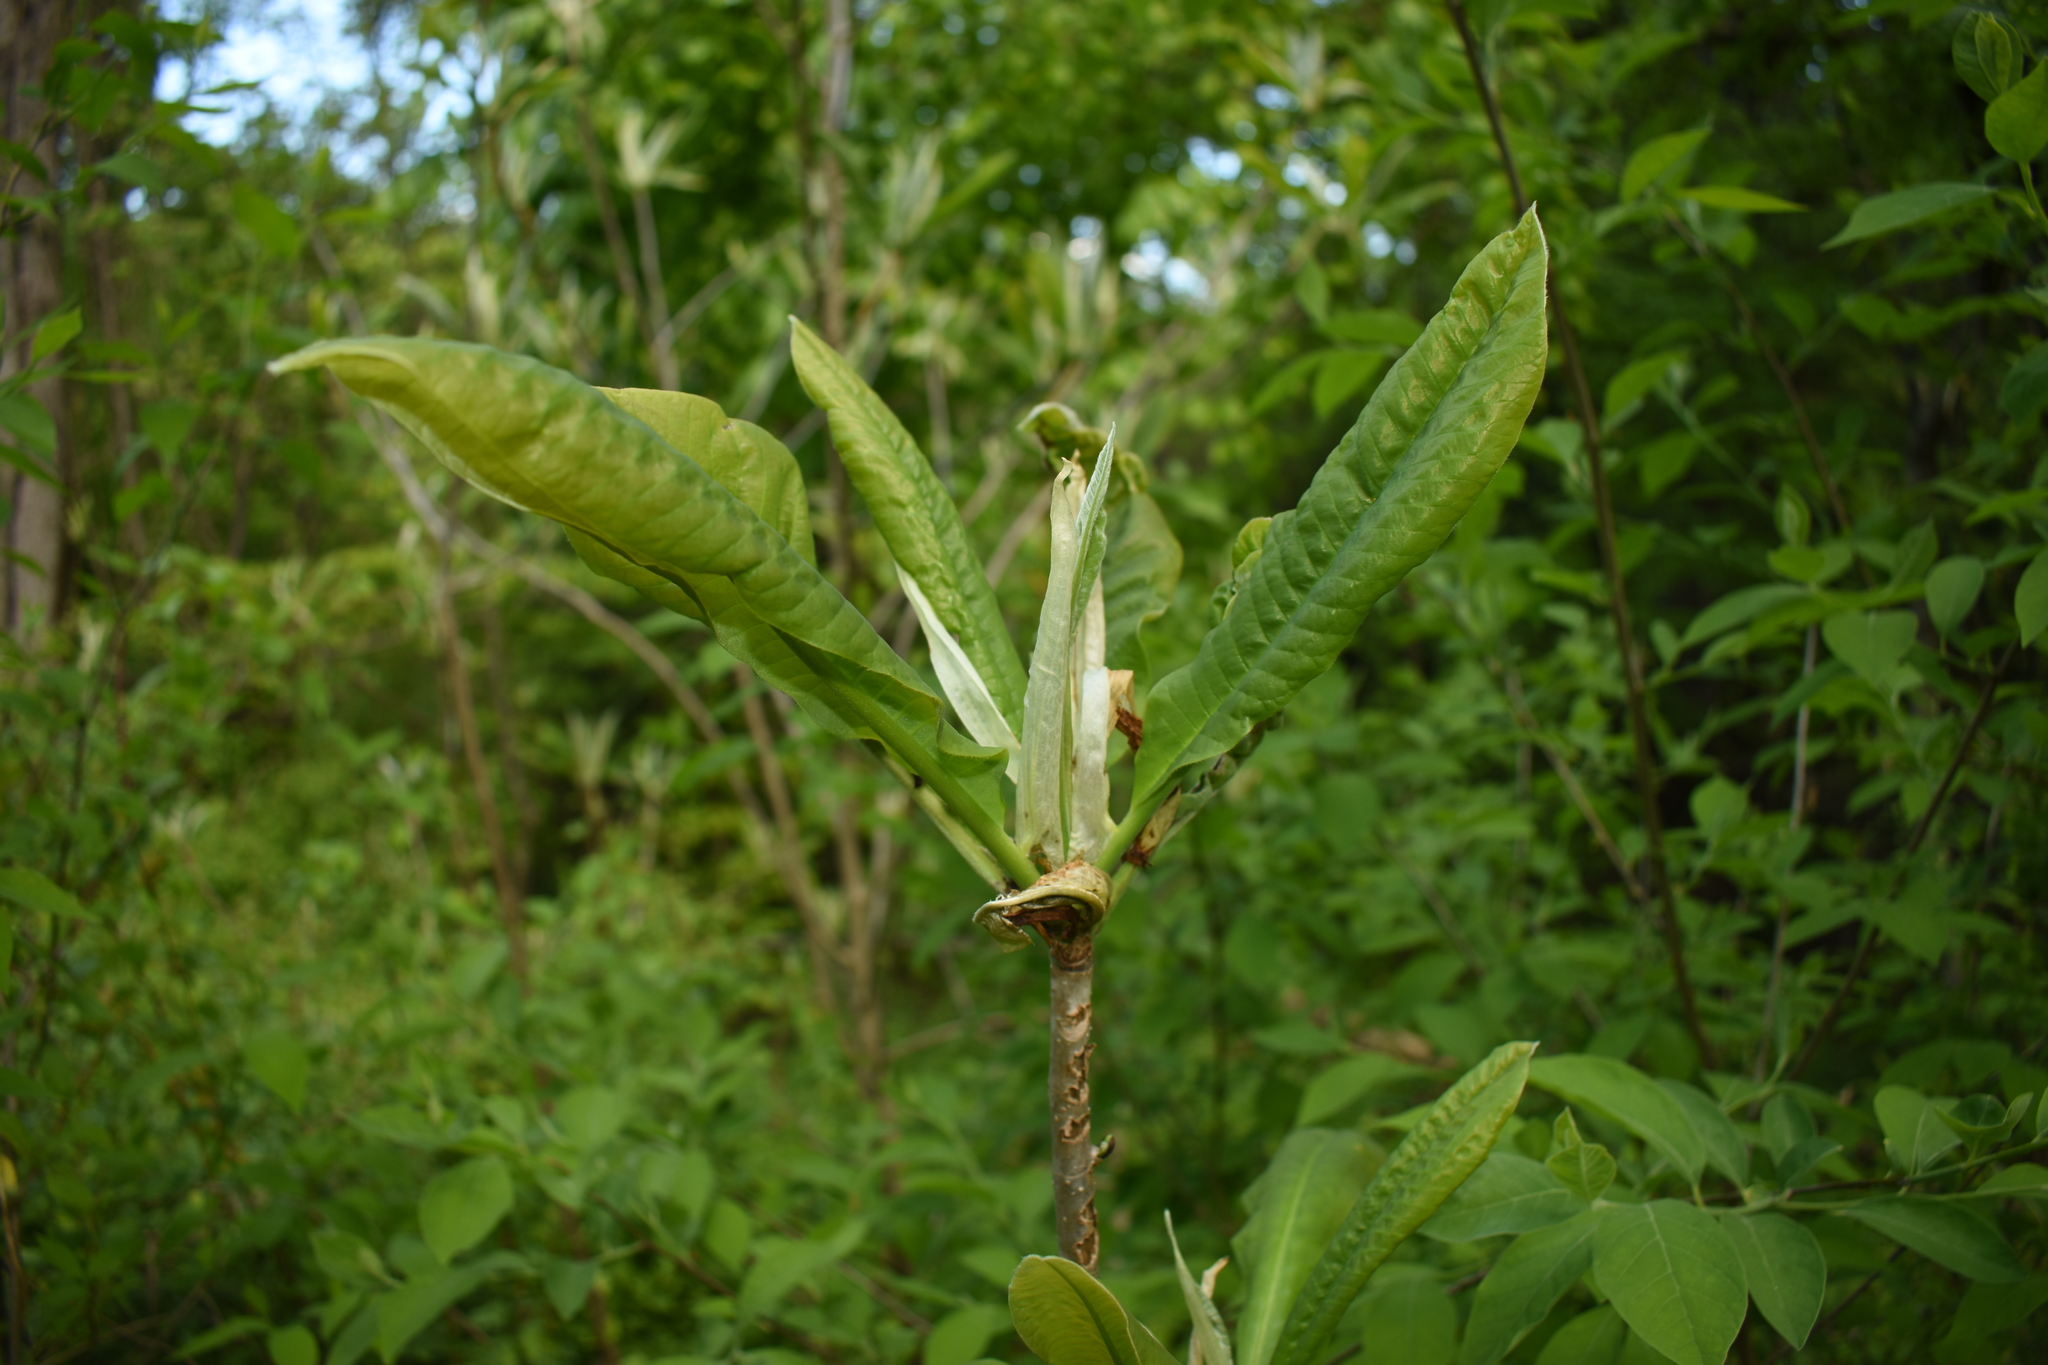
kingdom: Plantae
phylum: Tracheophyta
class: Magnoliopsida
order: Magnoliales
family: Magnoliaceae
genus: Magnolia
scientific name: Magnolia tripetala
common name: Umbrella magnolia
